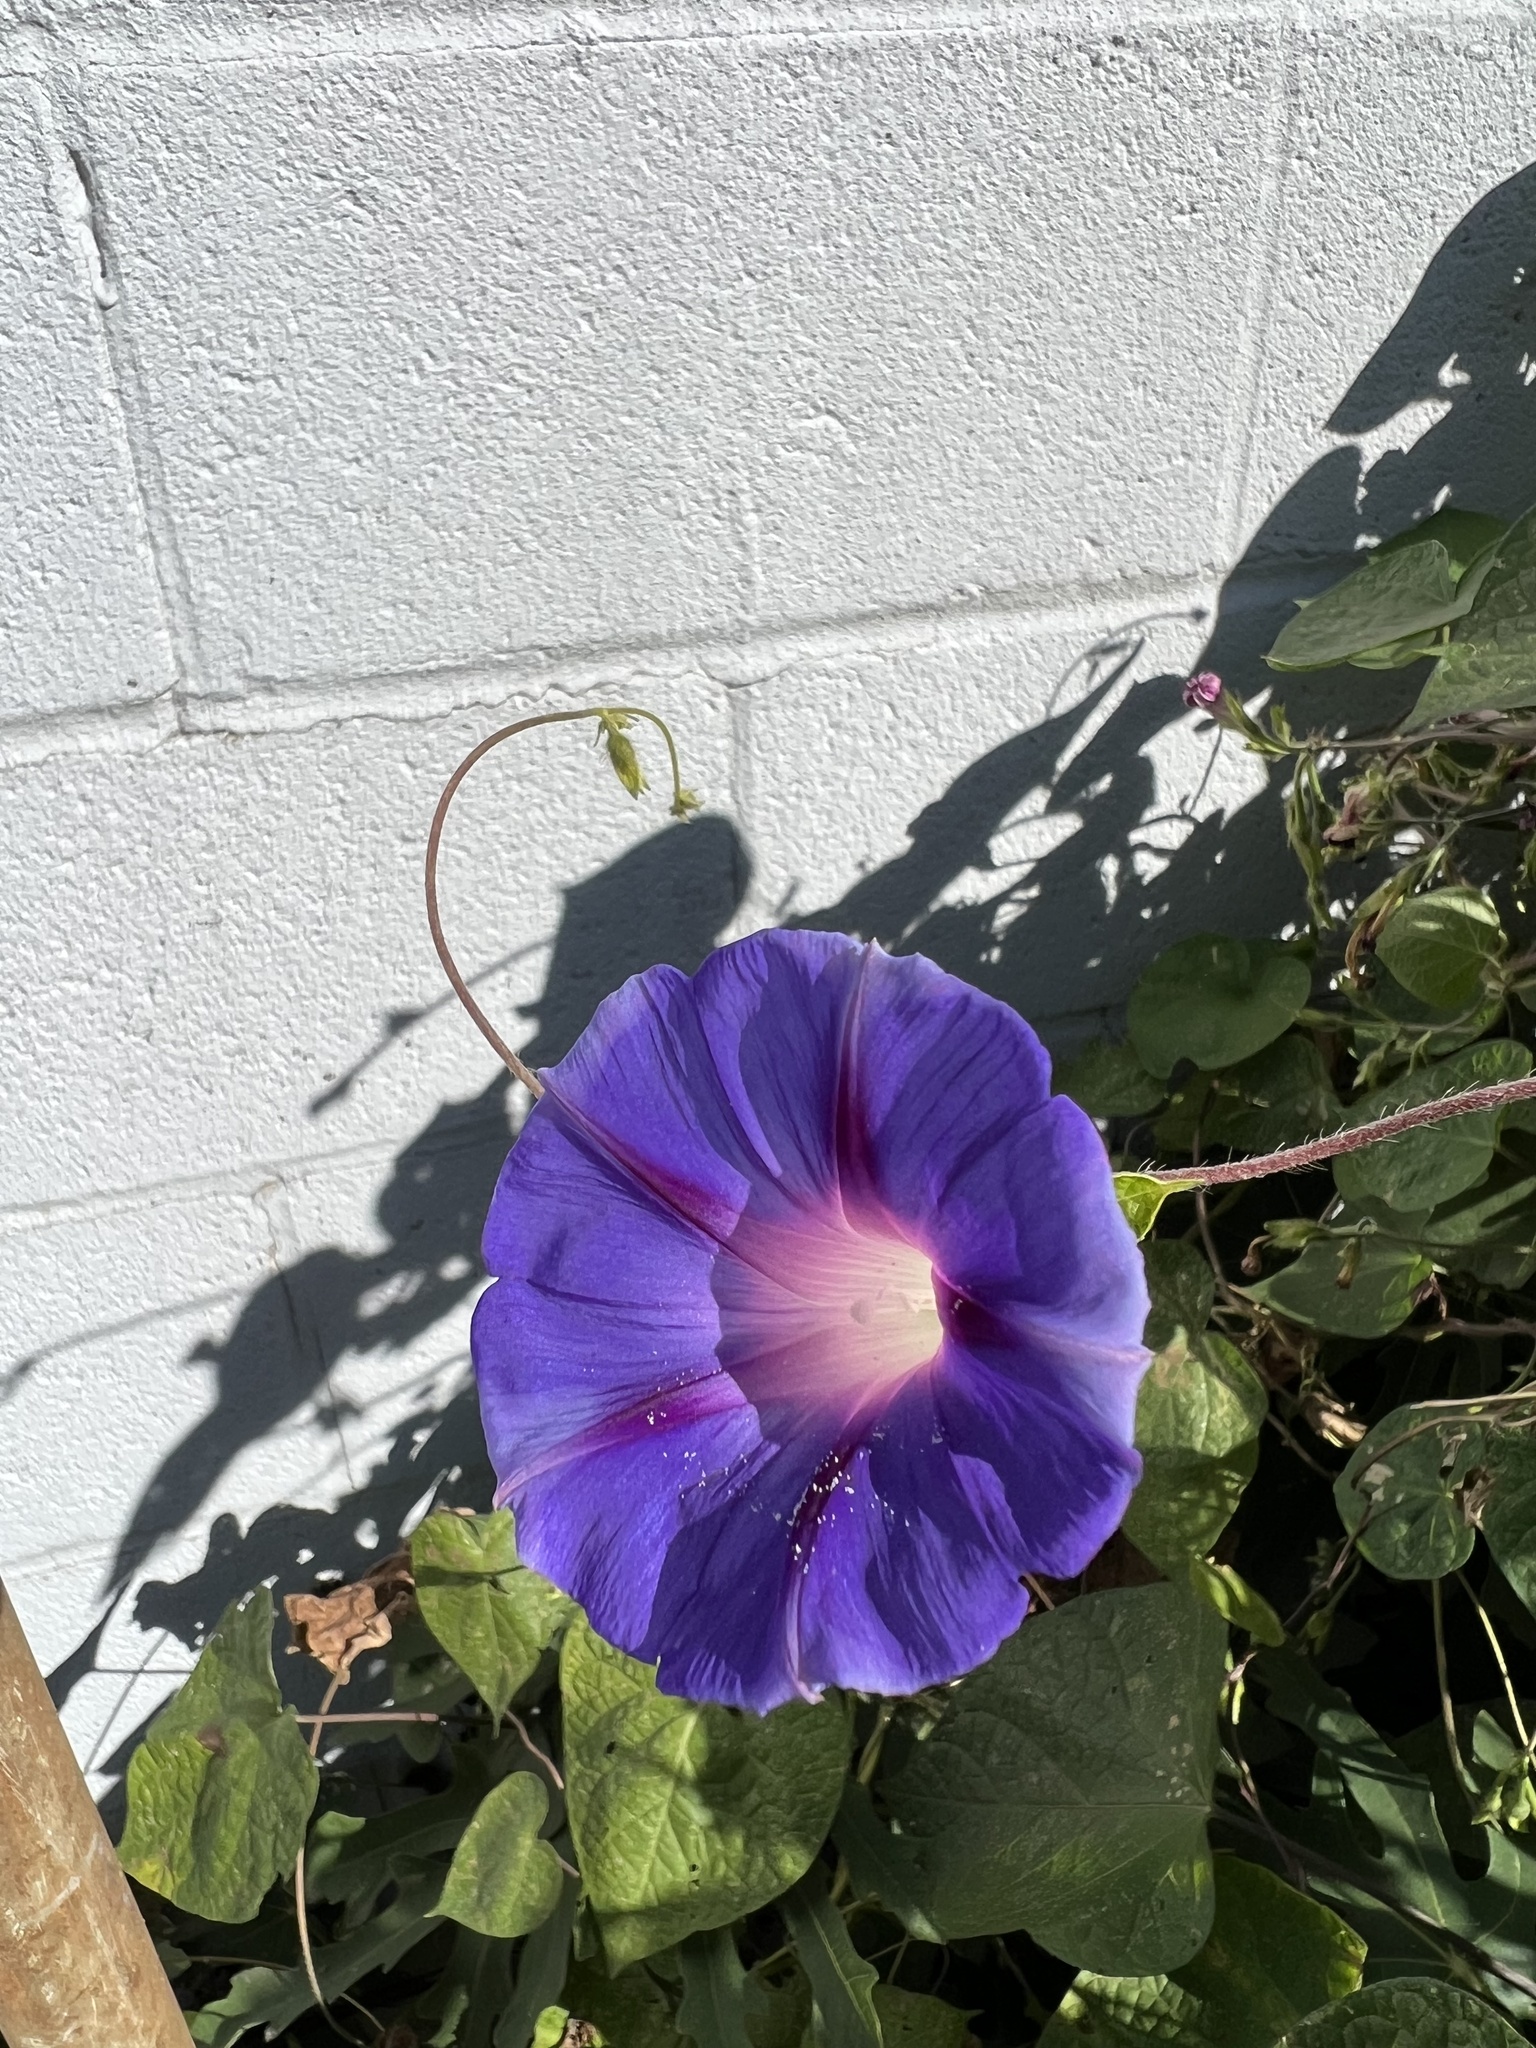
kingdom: Plantae
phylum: Tracheophyta
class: Magnoliopsida
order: Solanales
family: Convolvulaceae
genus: Ipomoea
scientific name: Ipomoea purpurea
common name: Common morning-glory
